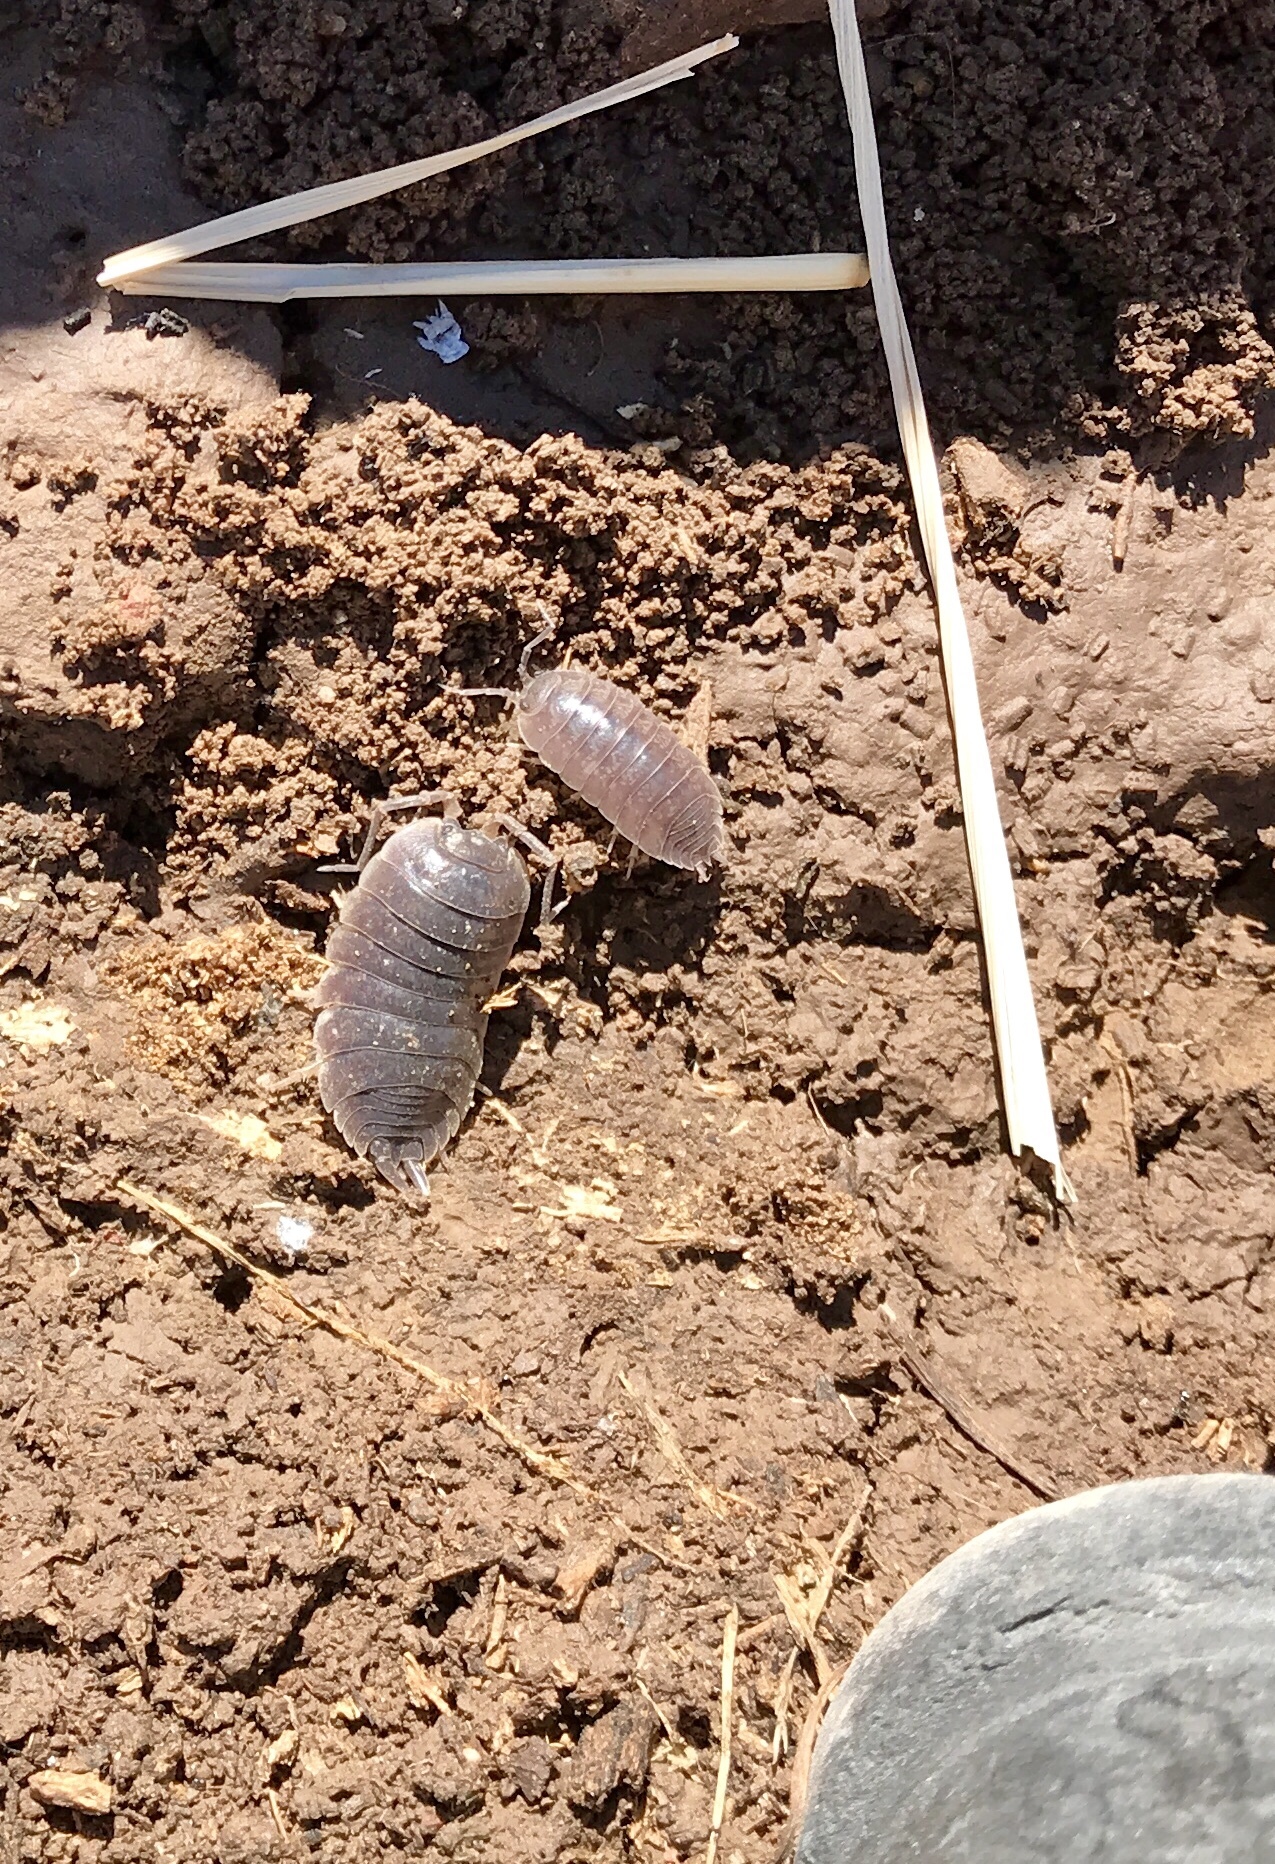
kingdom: Animalia
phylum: Arthropoda
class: Malacostraca
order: Isopoda
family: Porcellionidae
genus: Porcellio
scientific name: Porcellio laevis
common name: Swift woodlouse
